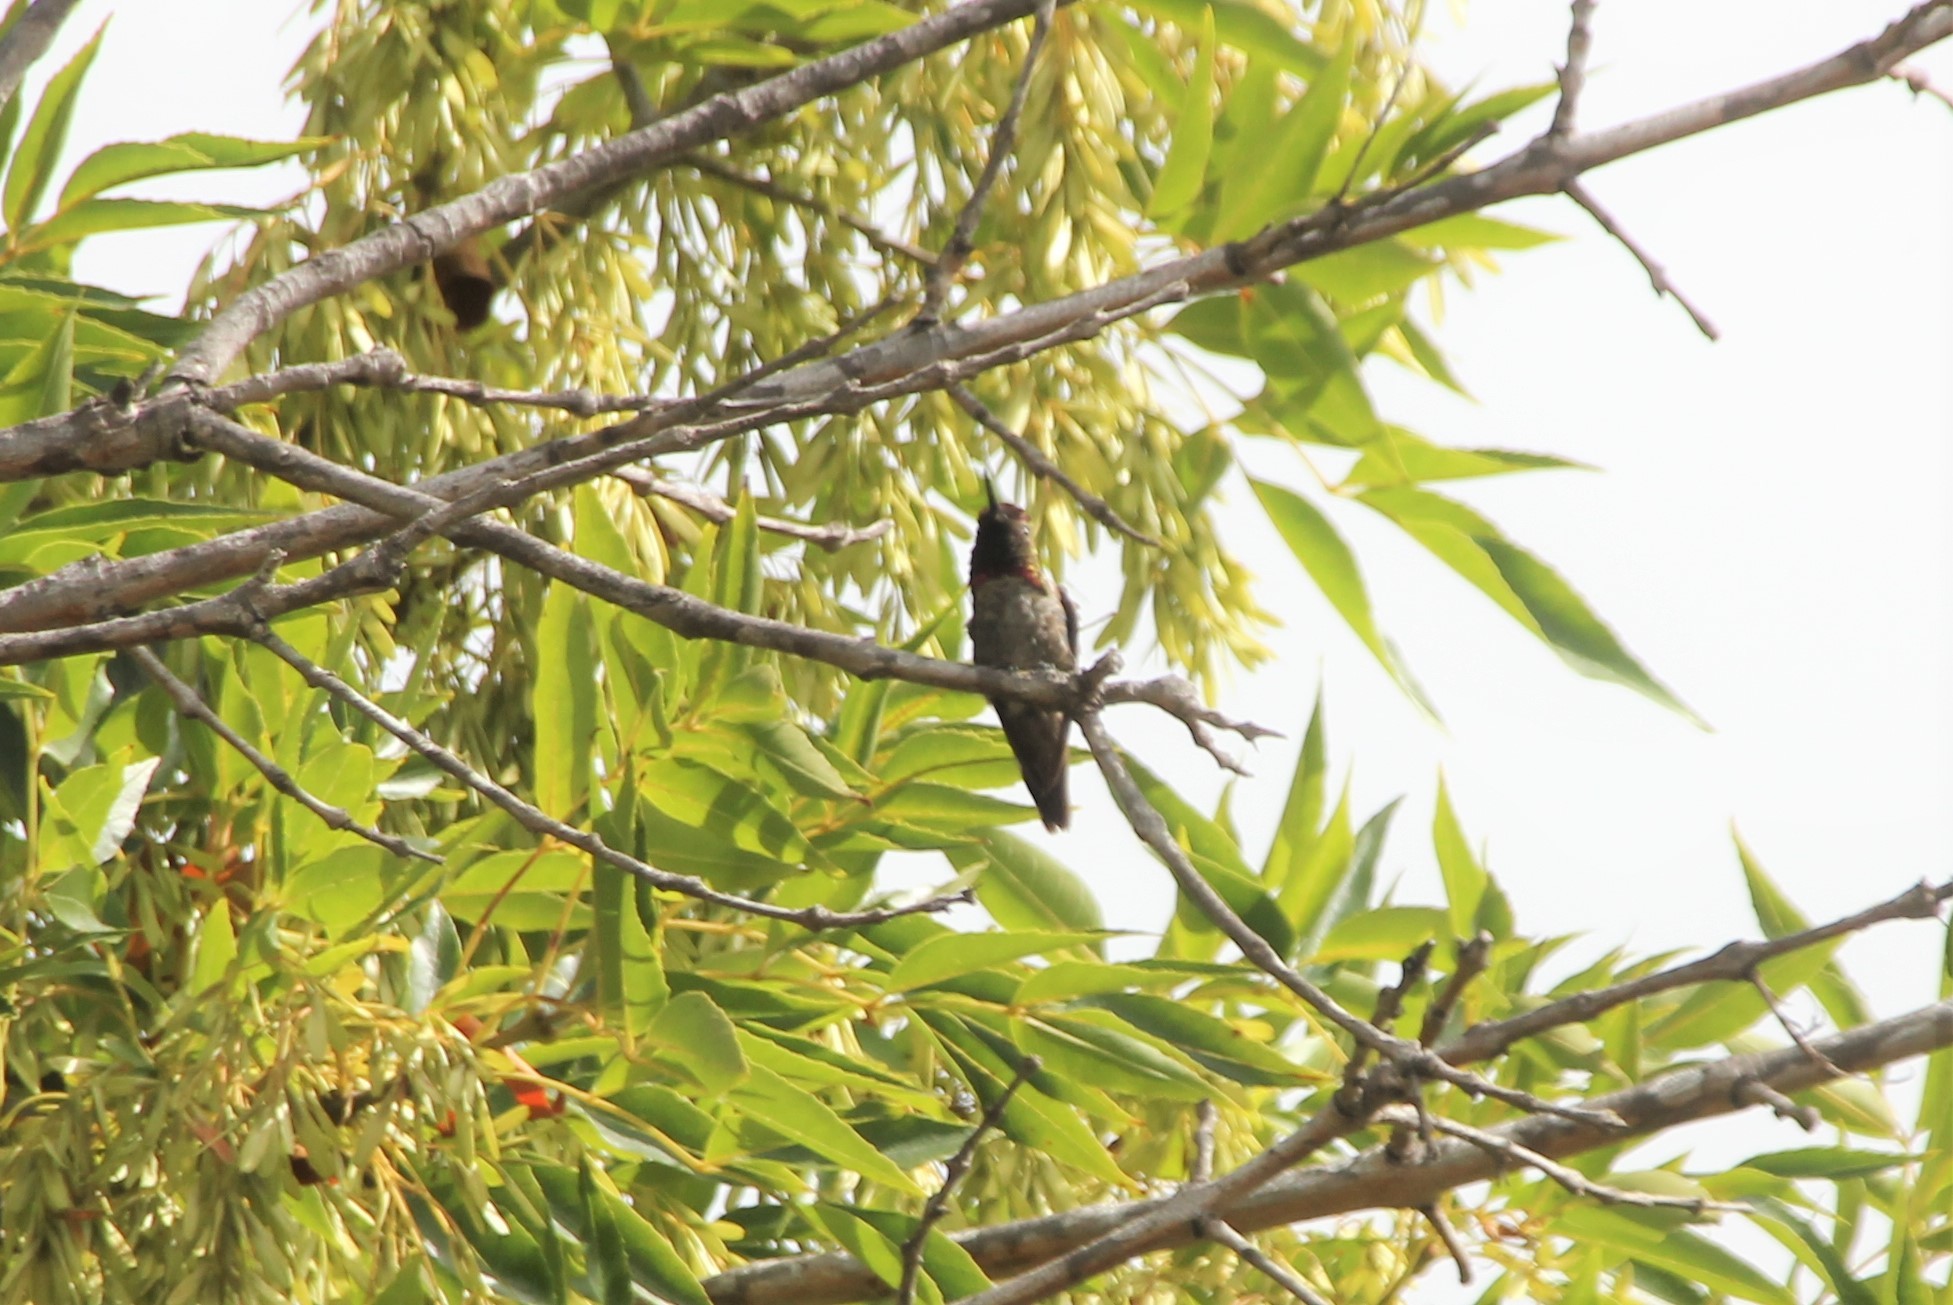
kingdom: Animalia
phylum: Chordata
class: Aves
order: Apodiformes
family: Trochilidae
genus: Calypte
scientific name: Calypte anna
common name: Anna's hummingbird
